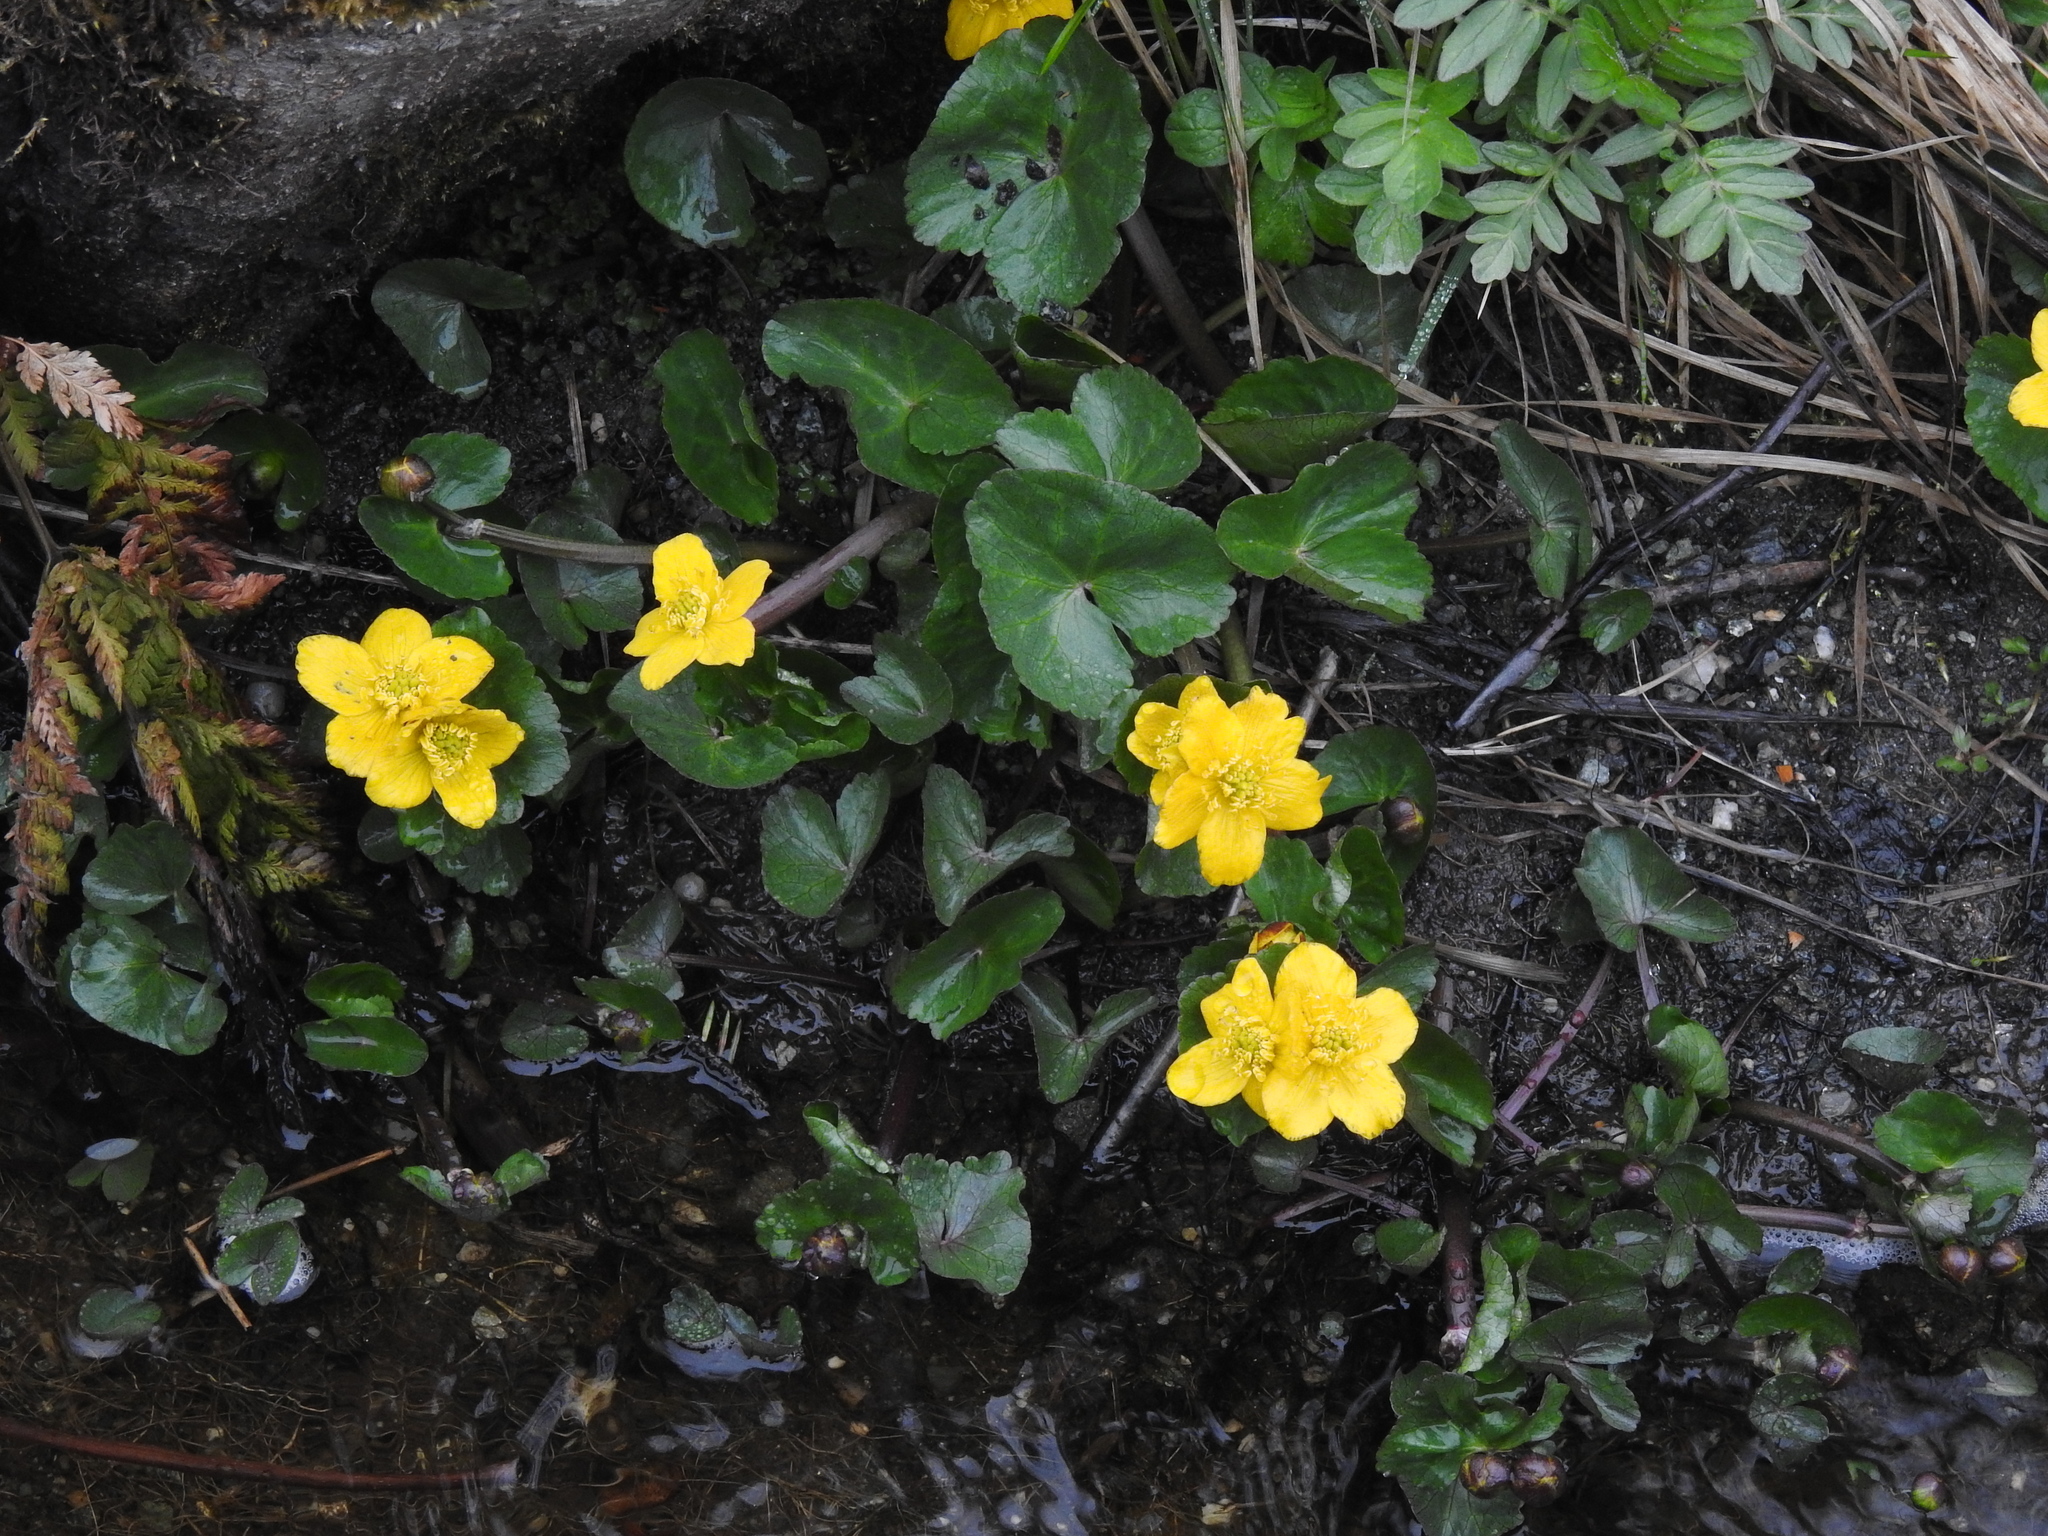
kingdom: Plantae
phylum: Tracheophyta
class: Magnoliopsida
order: Ranunculales
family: Ranunculaceae
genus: Caltha
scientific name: Caltha palustris
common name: Marsh marigold
